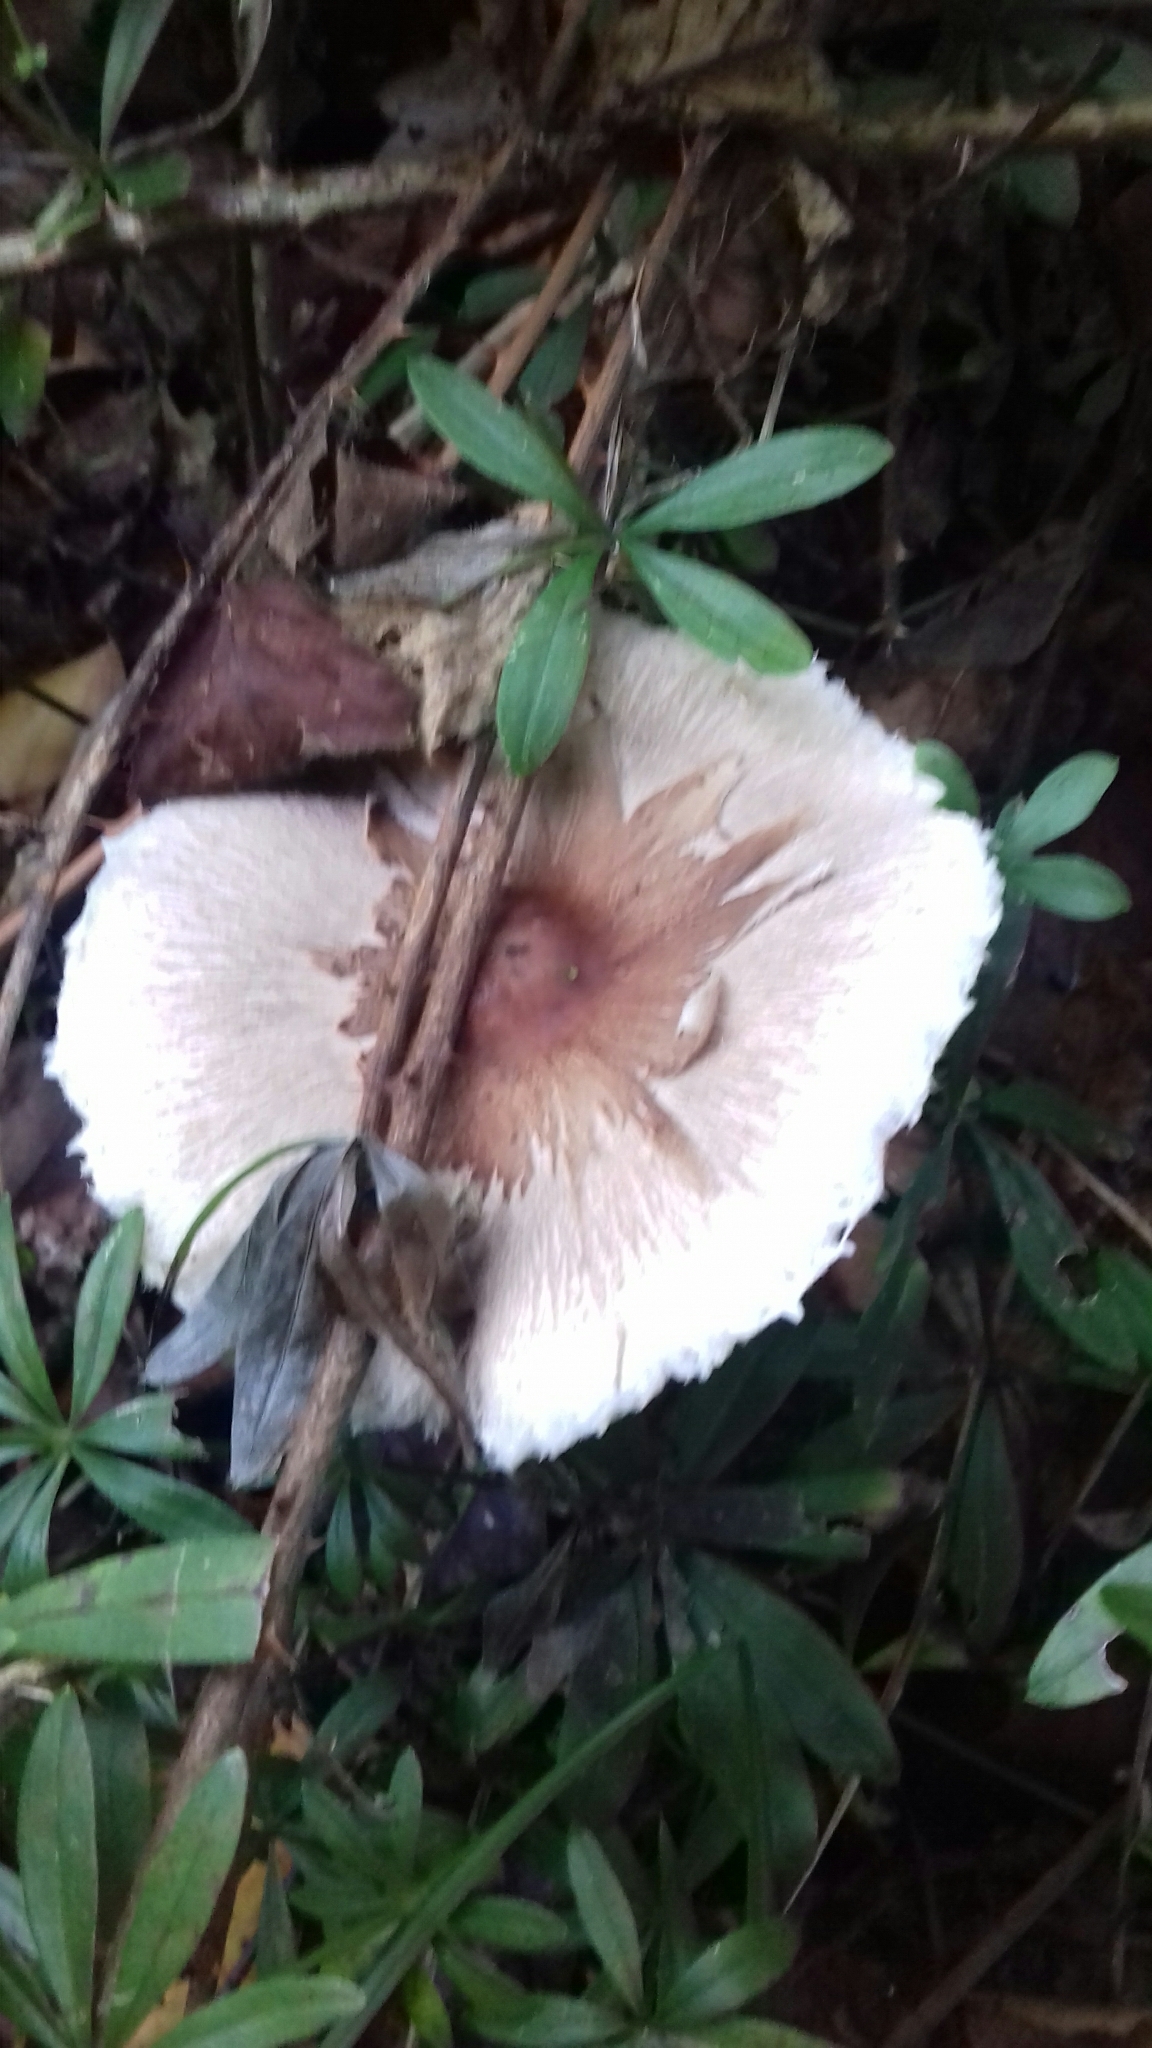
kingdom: Fungi
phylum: Basidiomycota
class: Agaricomycetes
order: Agaricales
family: Agaricaceae
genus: Macrolepiota
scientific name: Macrolepiota mastoidea
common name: Slender parasol
